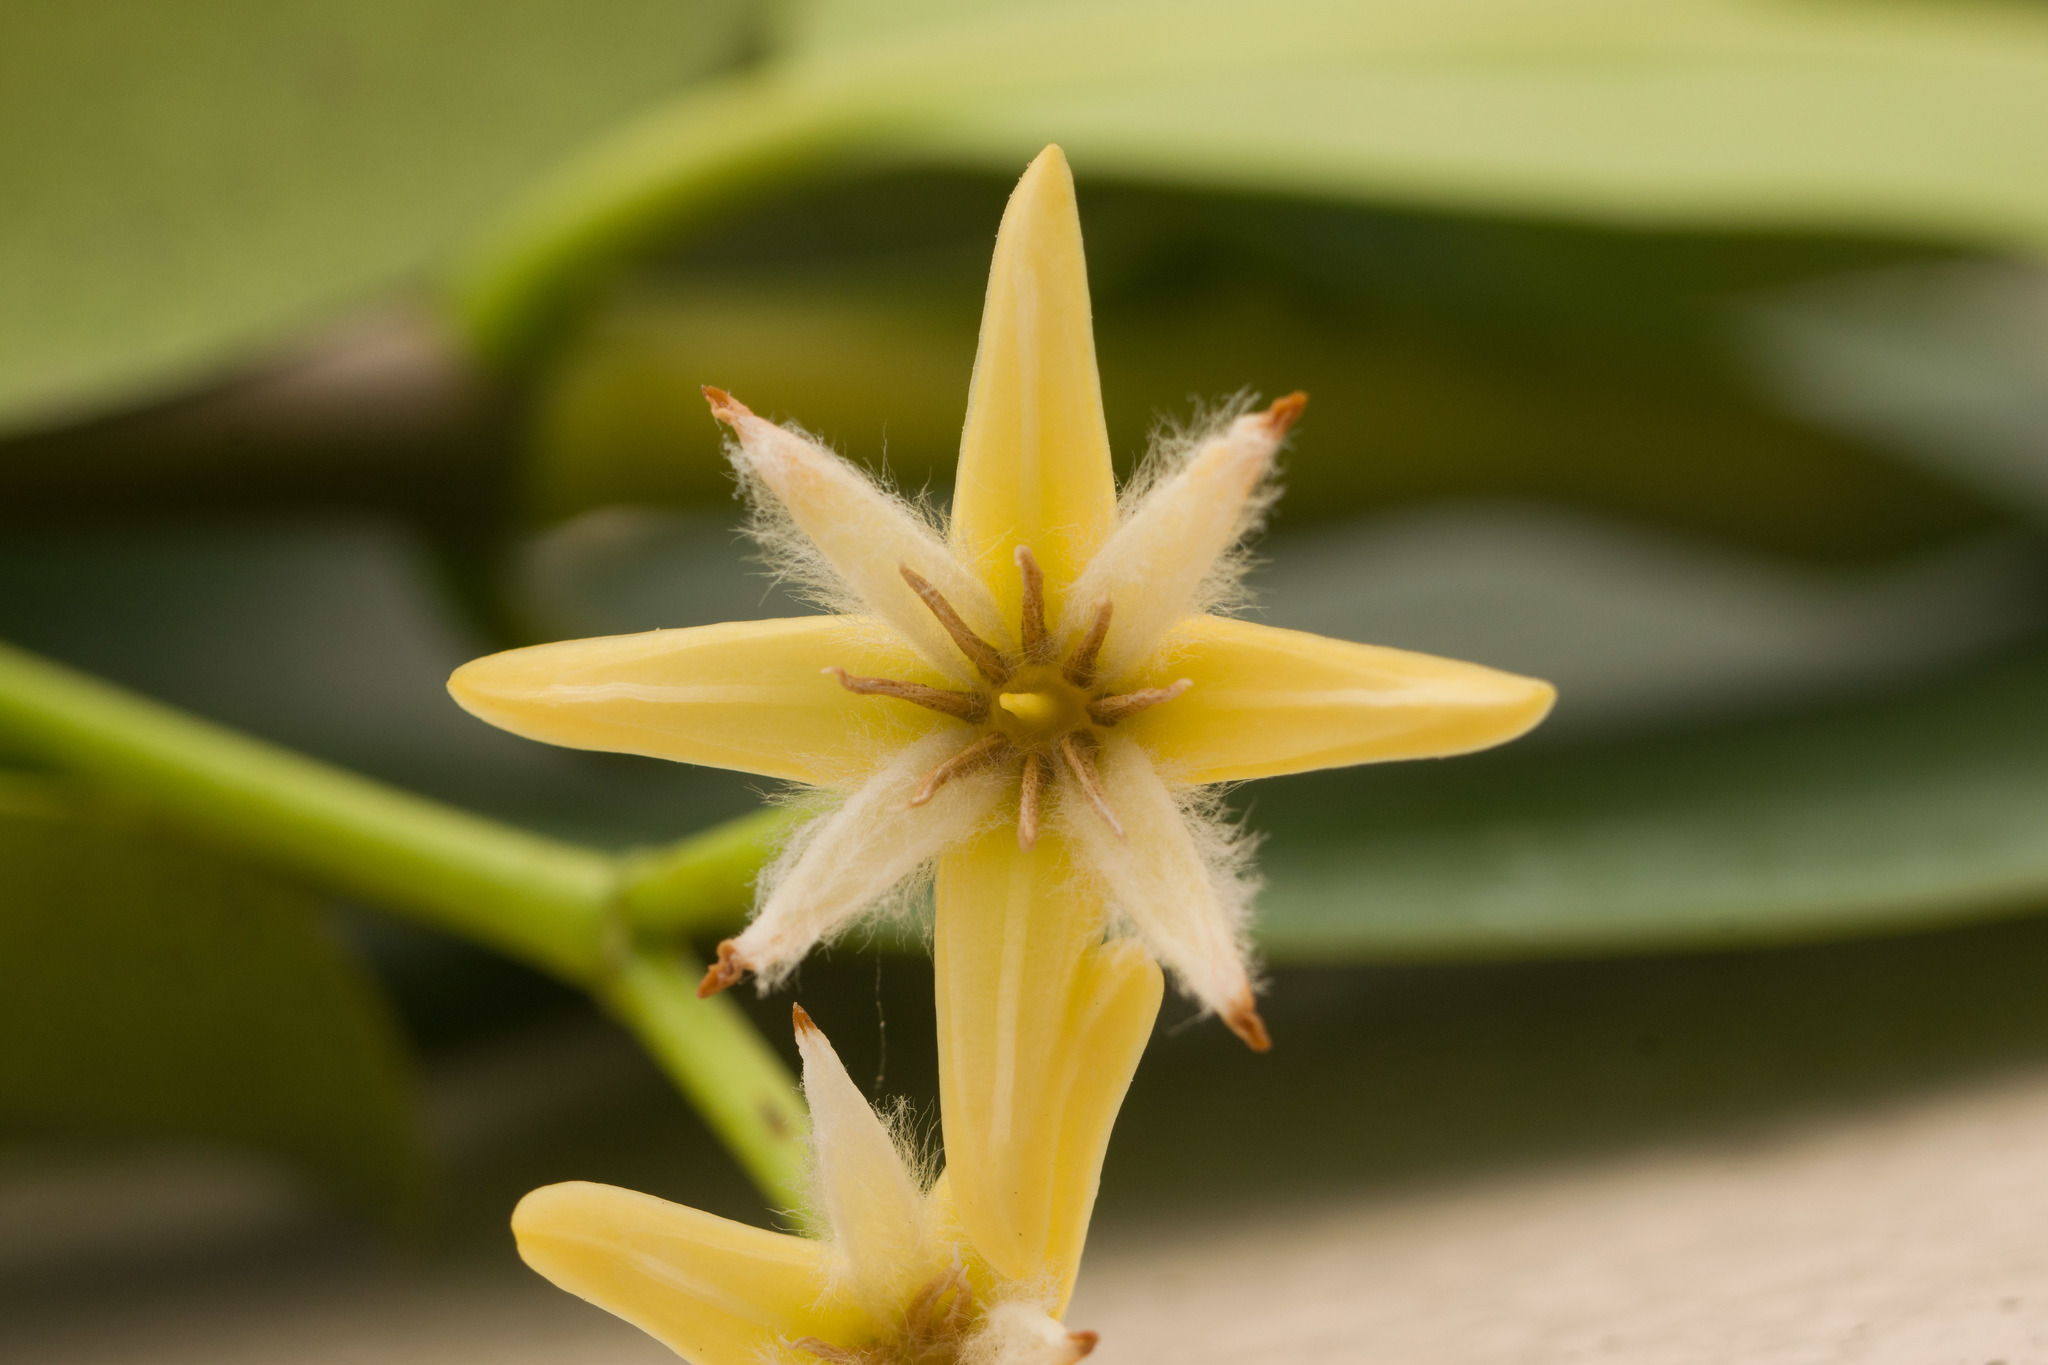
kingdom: Plantae
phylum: Tracheophyta
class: Magnoliopsida
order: Malpighiales
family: Rhizophoraceae
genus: Rhizophora
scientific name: Rhizophora mangle
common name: Red mangrove
